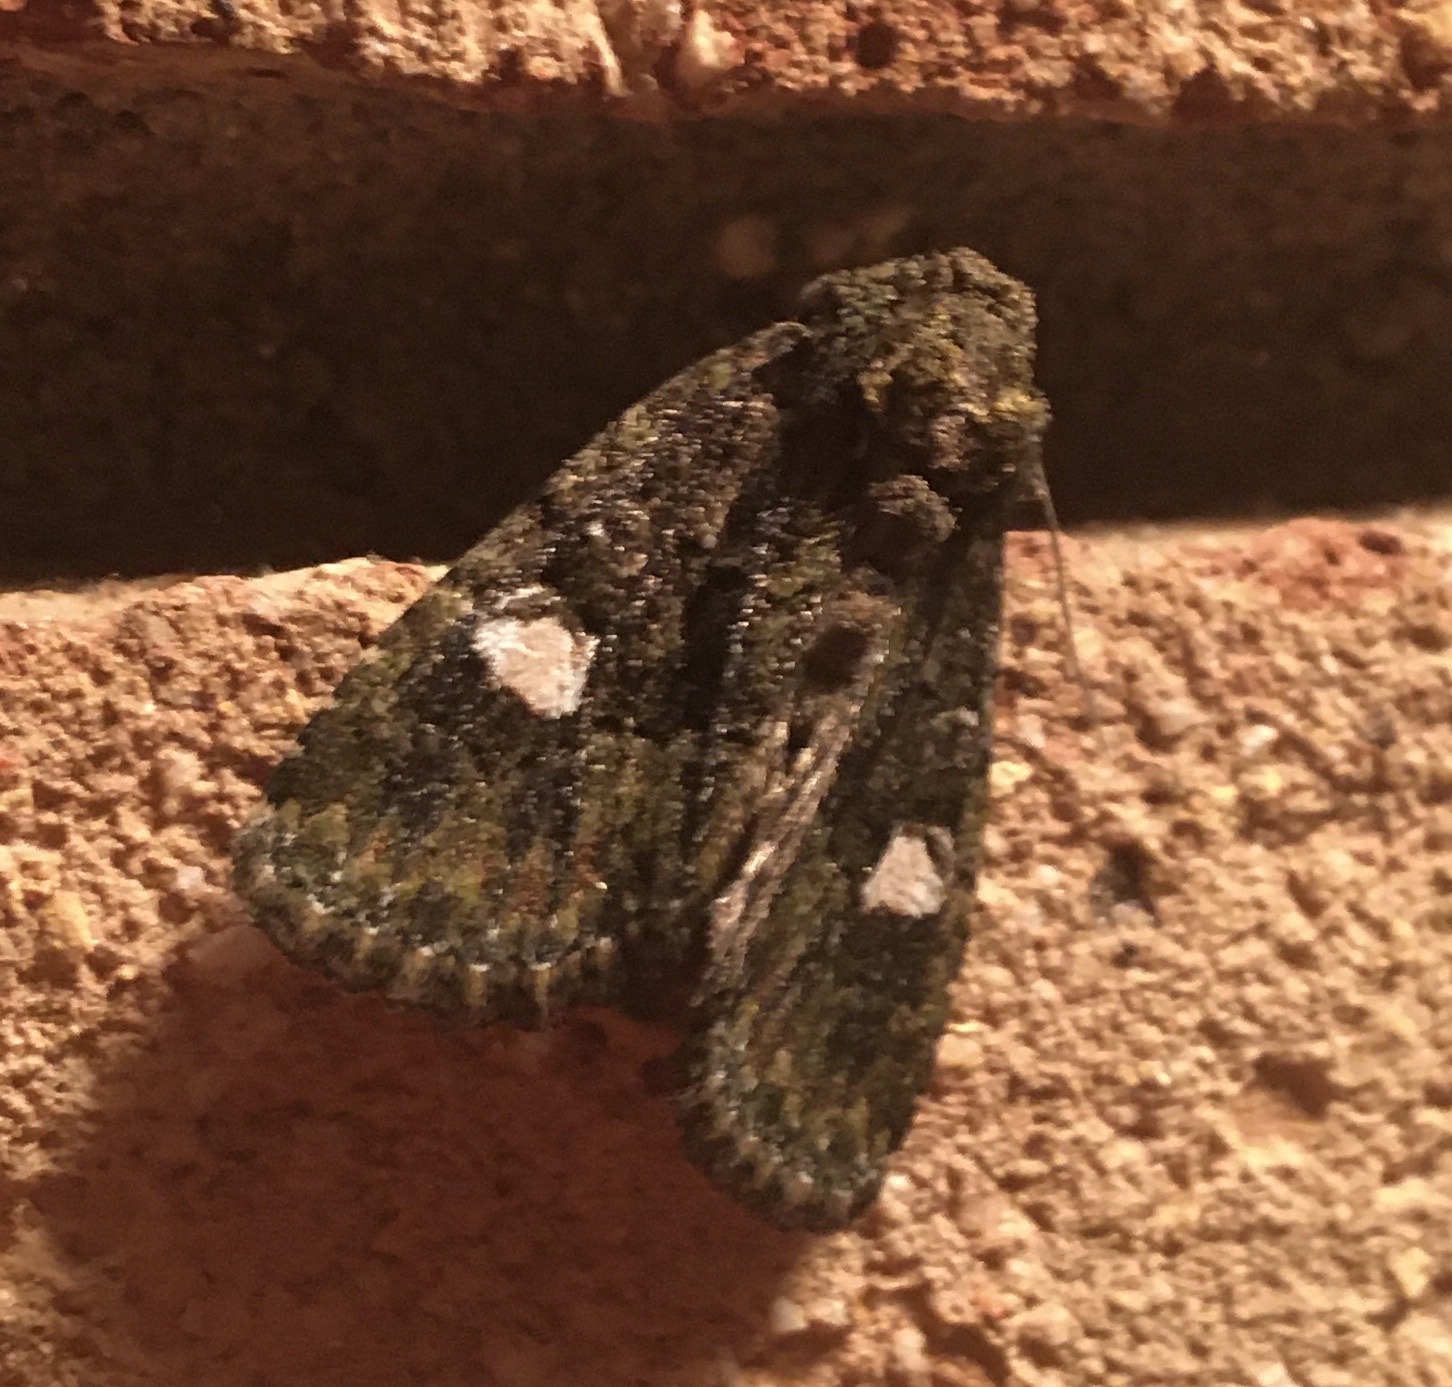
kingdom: Animalia
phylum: Arthropoda
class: Insecta
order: Lepidoptera
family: Noctuidae
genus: Phosphila
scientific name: Phosphila miselioides
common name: Spotted phosphila moth
